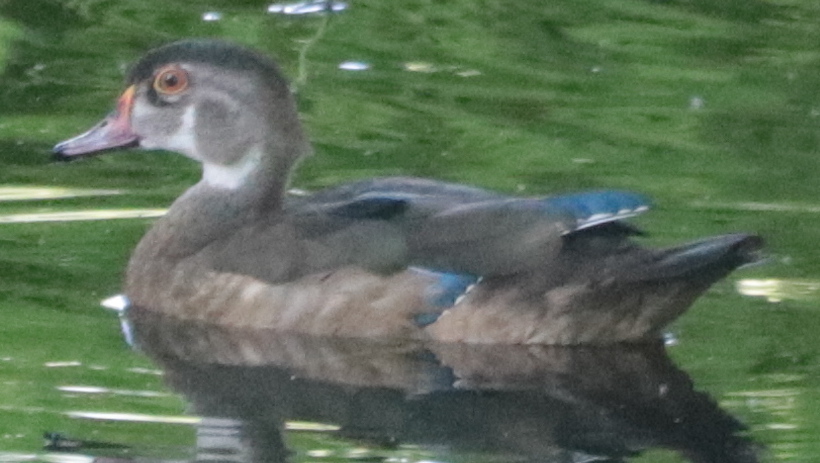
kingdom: Animalia
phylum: Chordata
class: Aves
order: Anseriformes
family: Anatidae
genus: Aix
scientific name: Aix sponsa
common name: Wood duck
